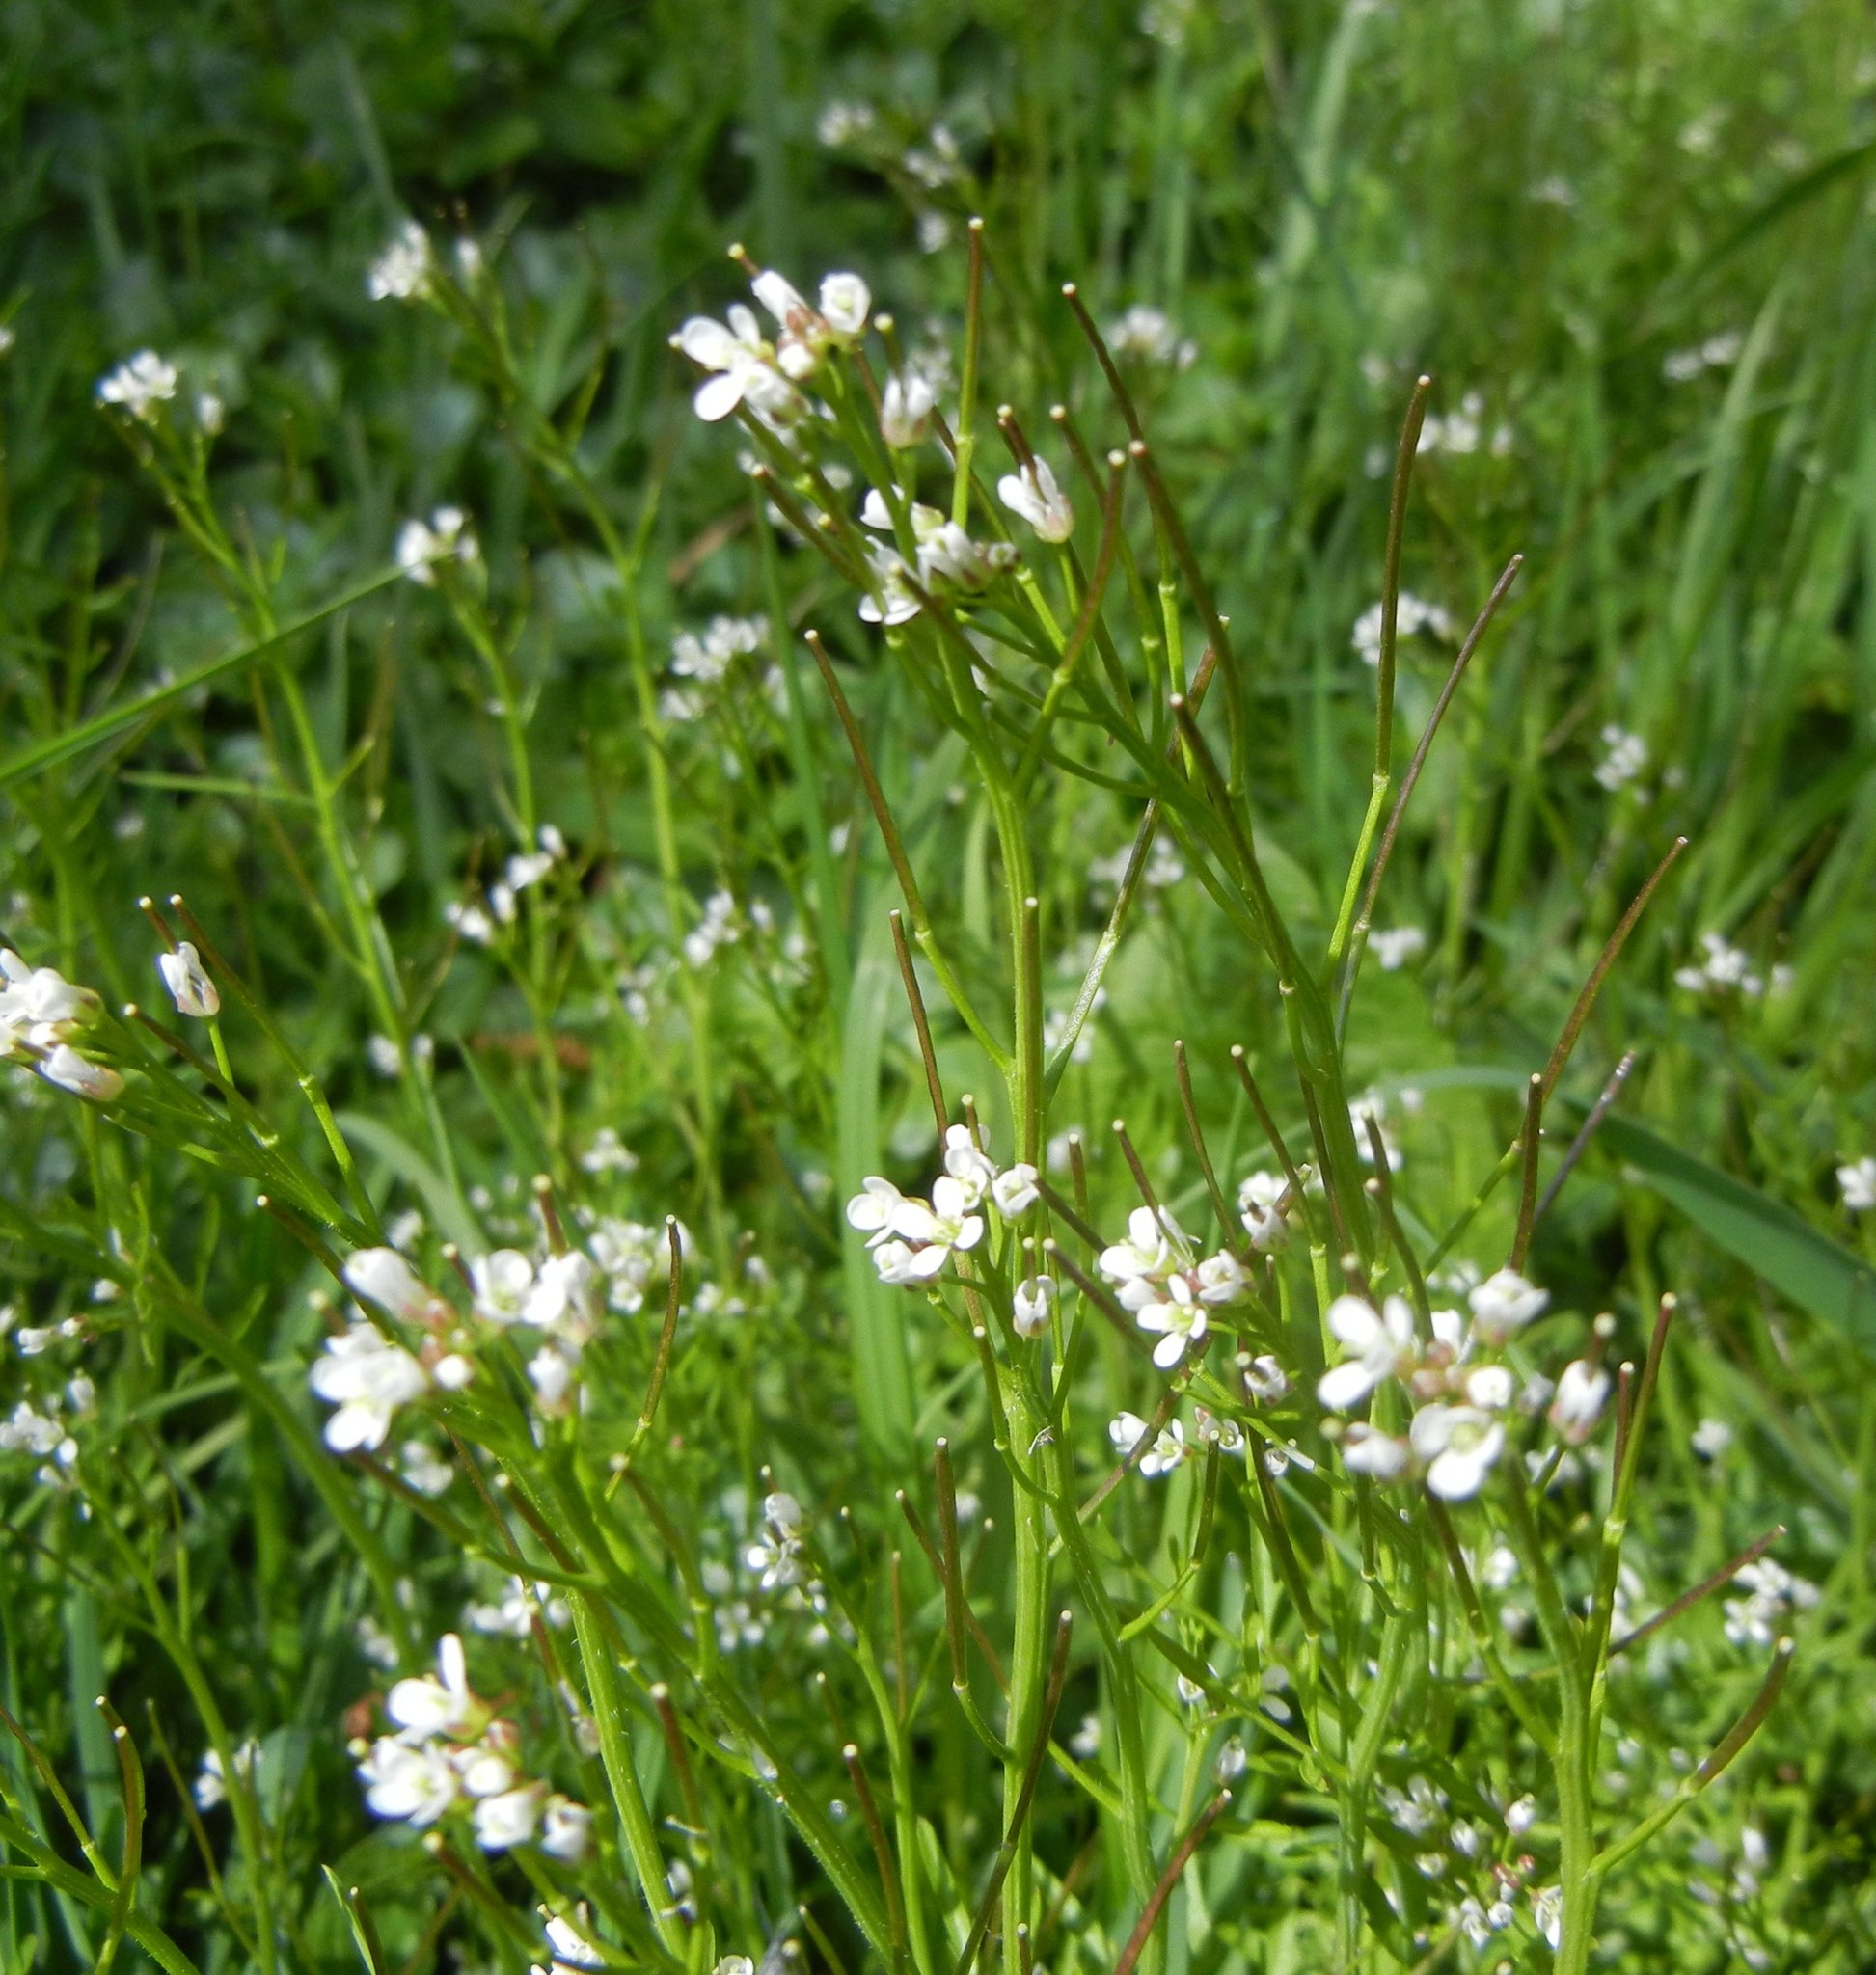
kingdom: Plantae
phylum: Tracheophyta
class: Magnoliopsida
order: Brassicales
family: Brassicaceae
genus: Cardamine
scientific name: Cardamine hirsuta
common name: Hairy bittercress
